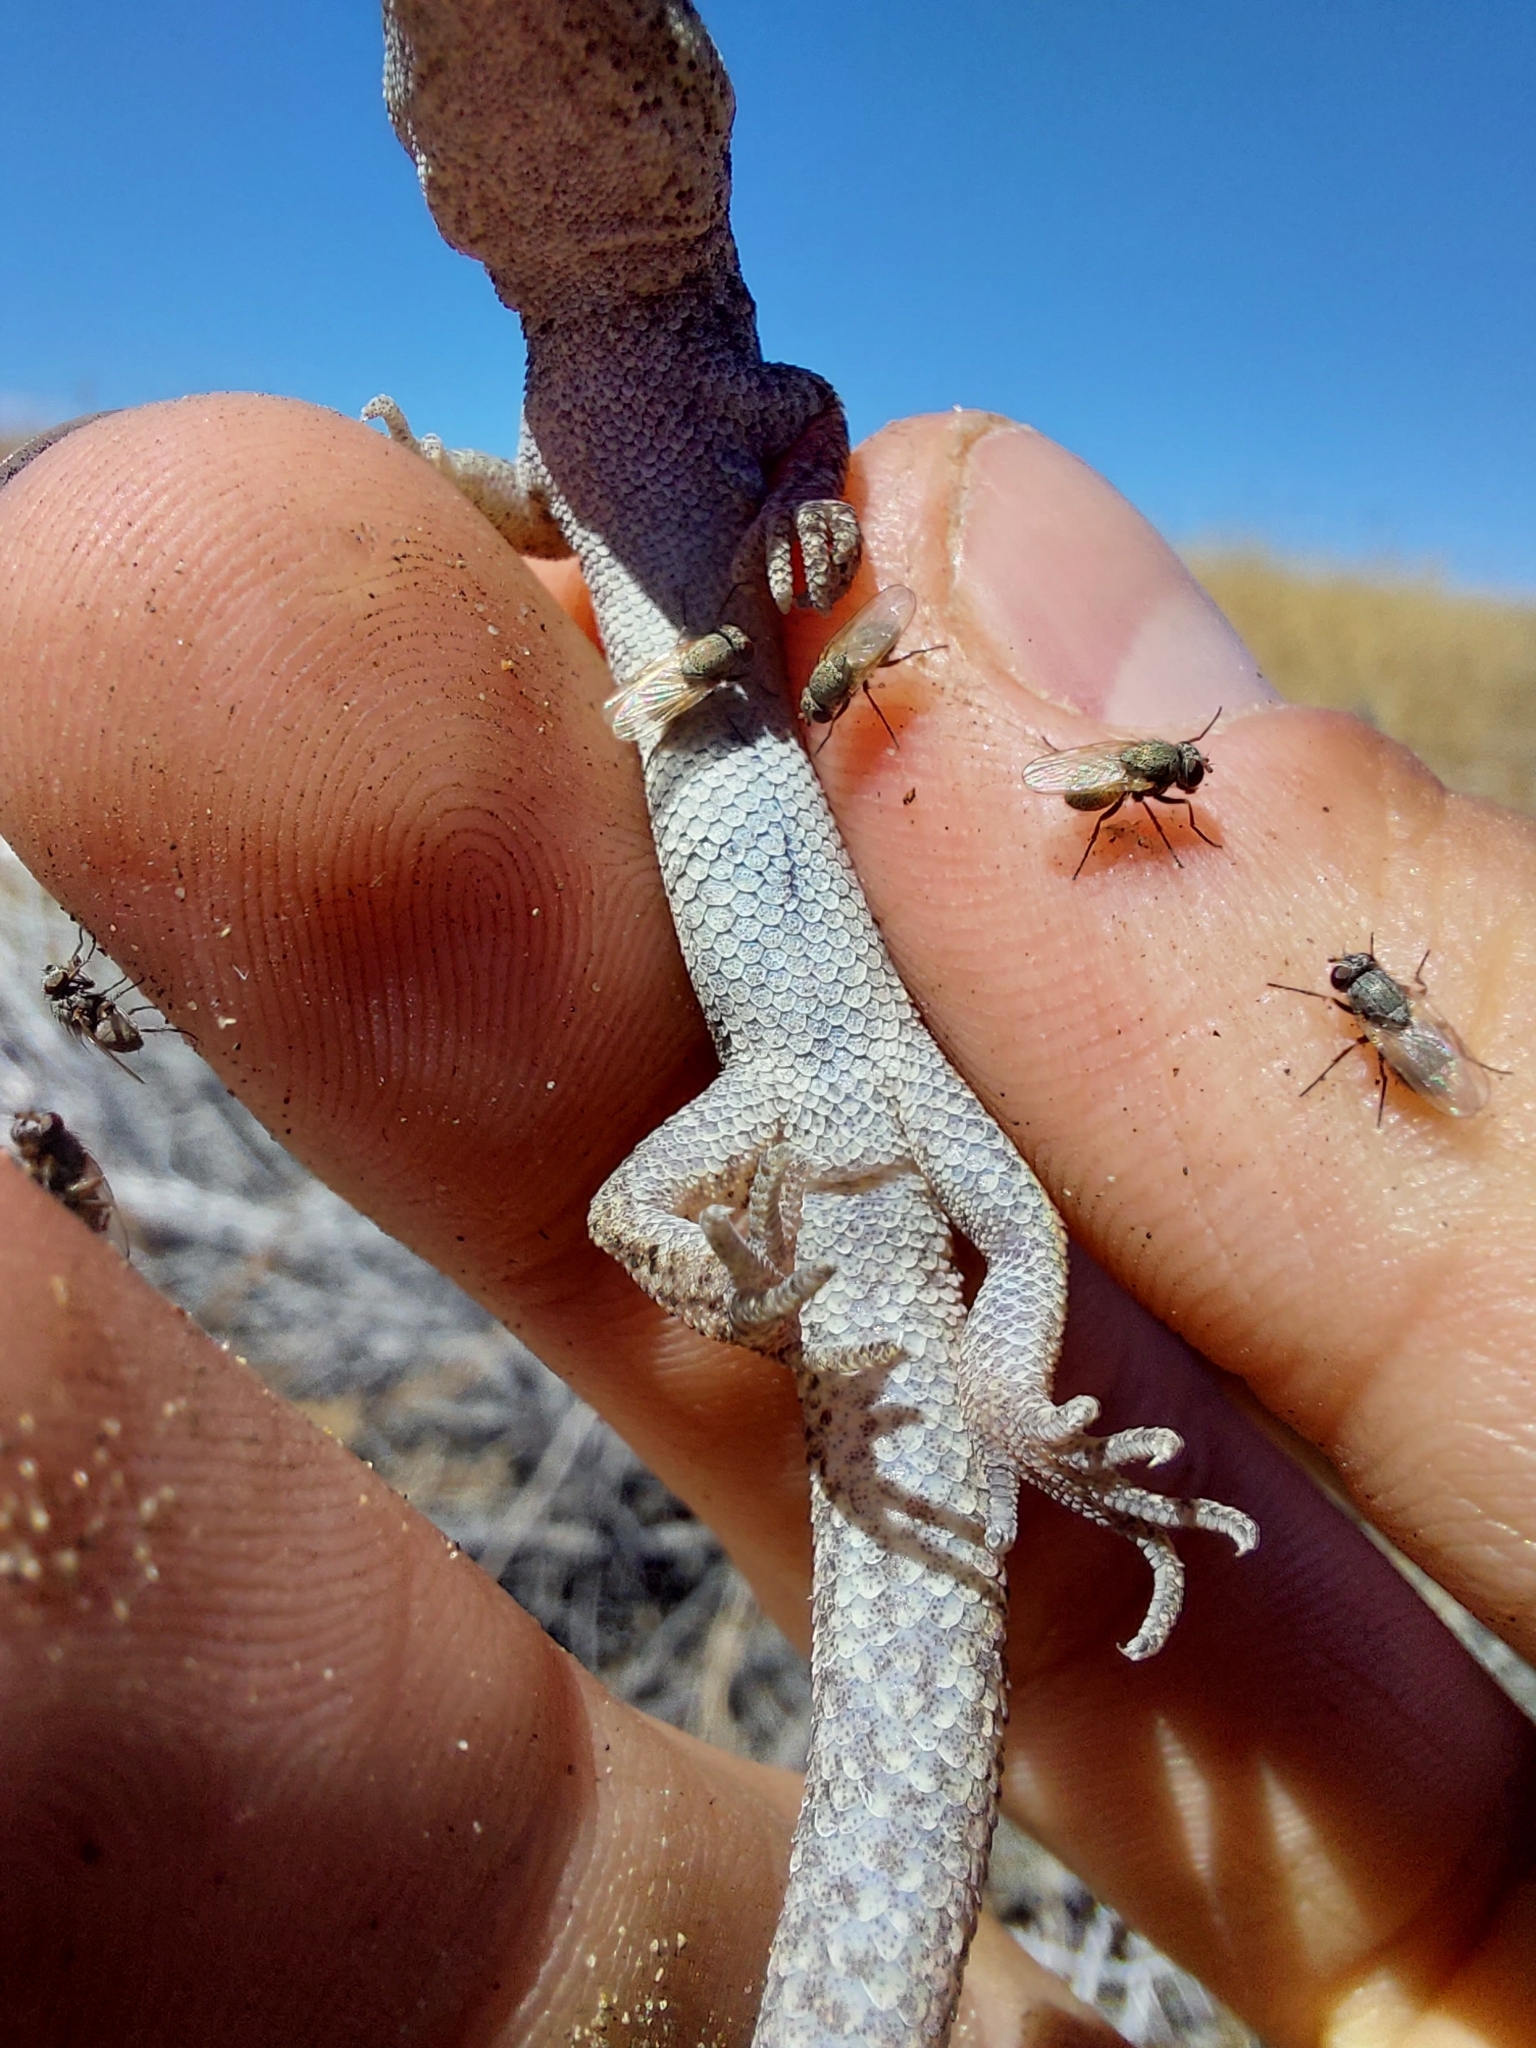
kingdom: Animalia
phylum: Chordata
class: Squamata
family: Phyllodactylidae
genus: Homonota
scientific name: Homonota darwinii
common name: Darwin's marked gecko
